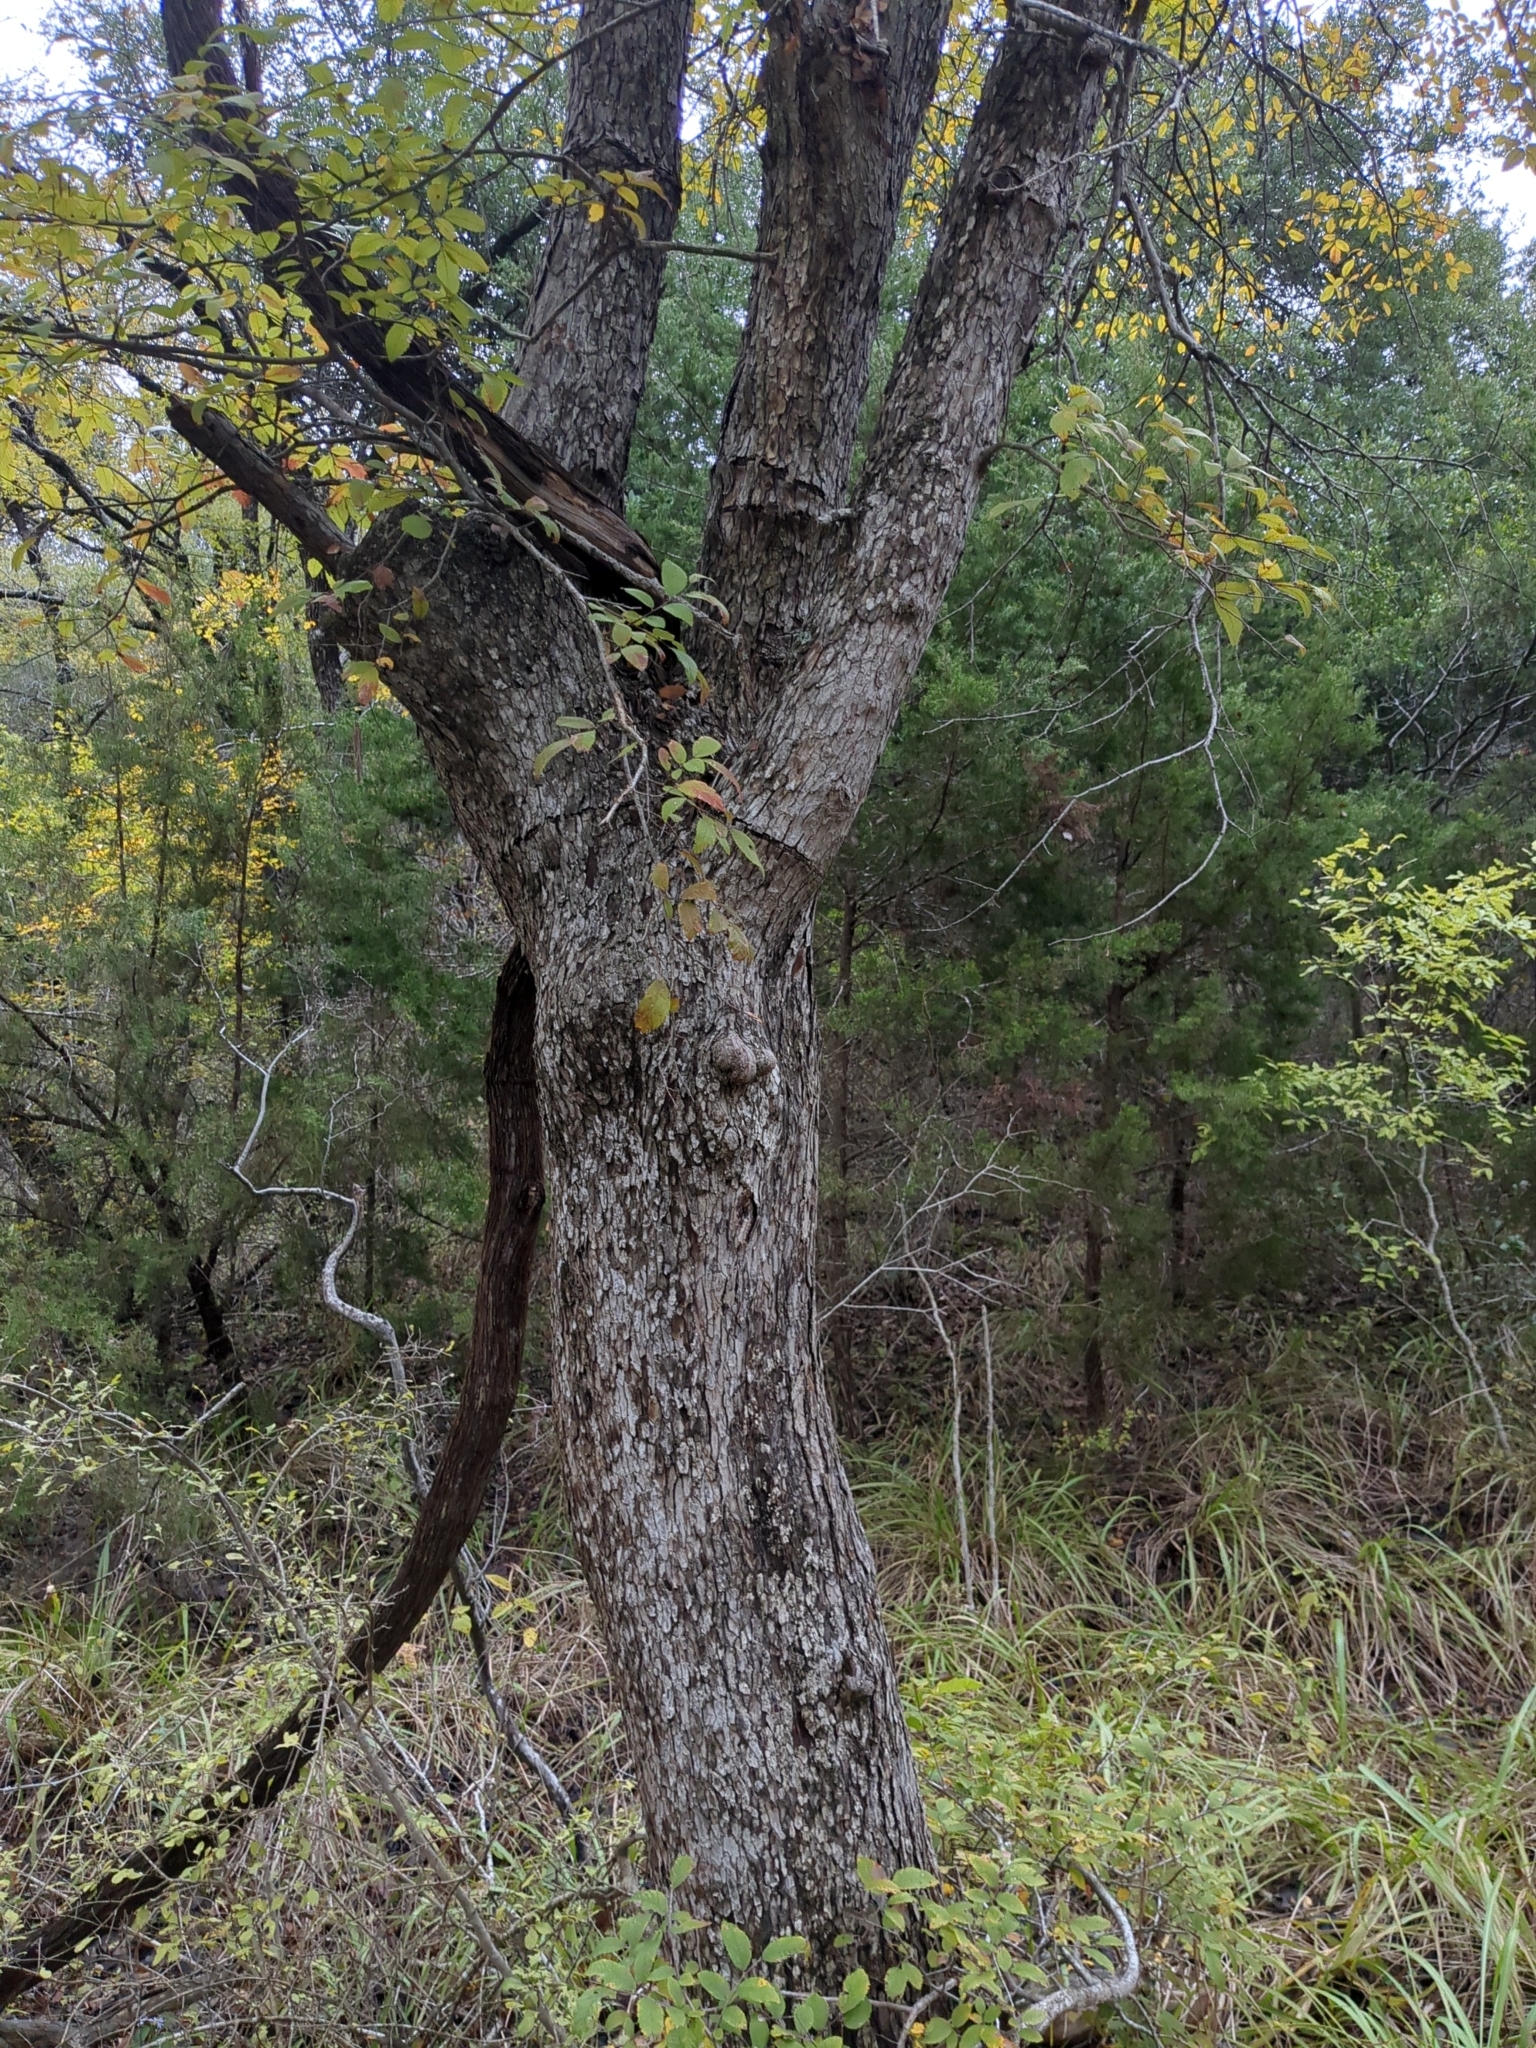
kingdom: Plantae
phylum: Tracheophyta
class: Magnoliopsida
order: Rosales
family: Ulmaceae
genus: Ulmus
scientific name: Ulmus crassifolia
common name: Basket elm
